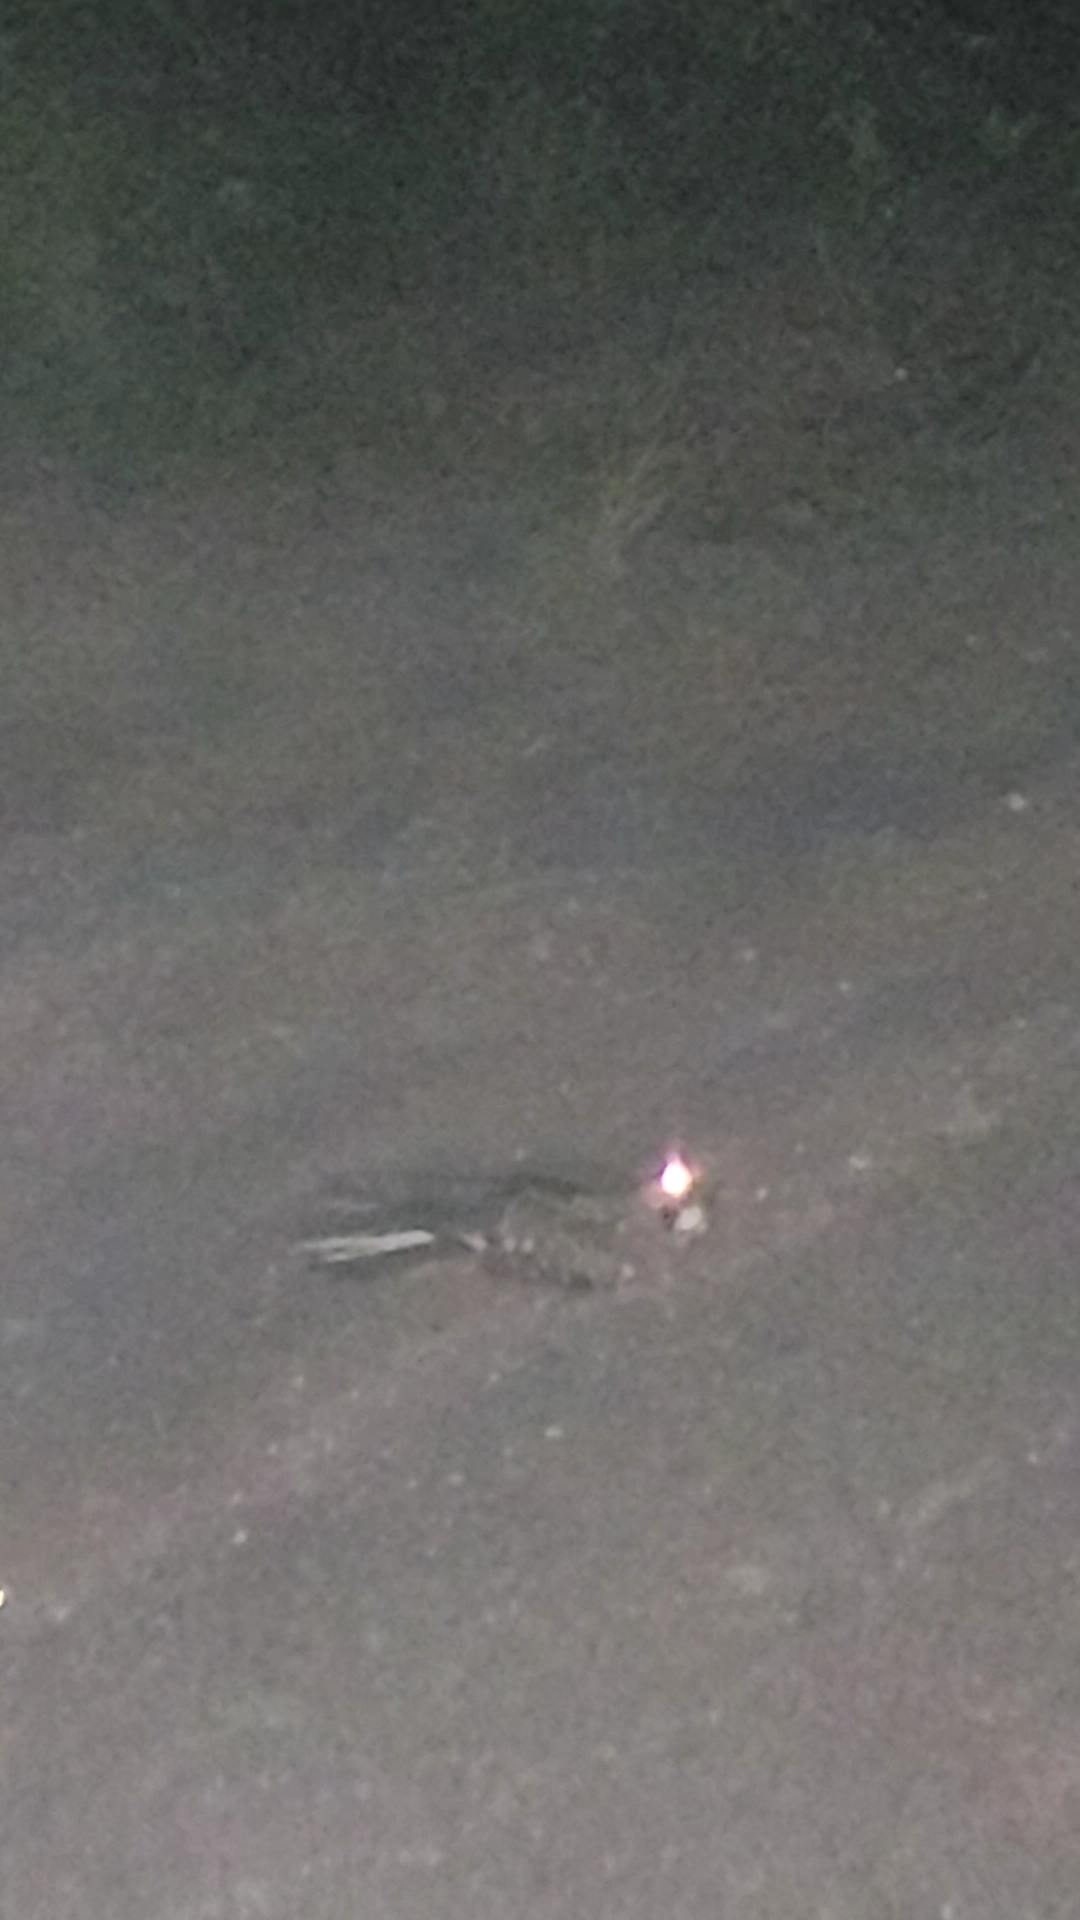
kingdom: Animalia
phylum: Chordata
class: Aves
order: Caprimulgiformes
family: Caprimulgidae
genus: Nyctidromus
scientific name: Nyctidromus albicollis
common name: Pauraque
